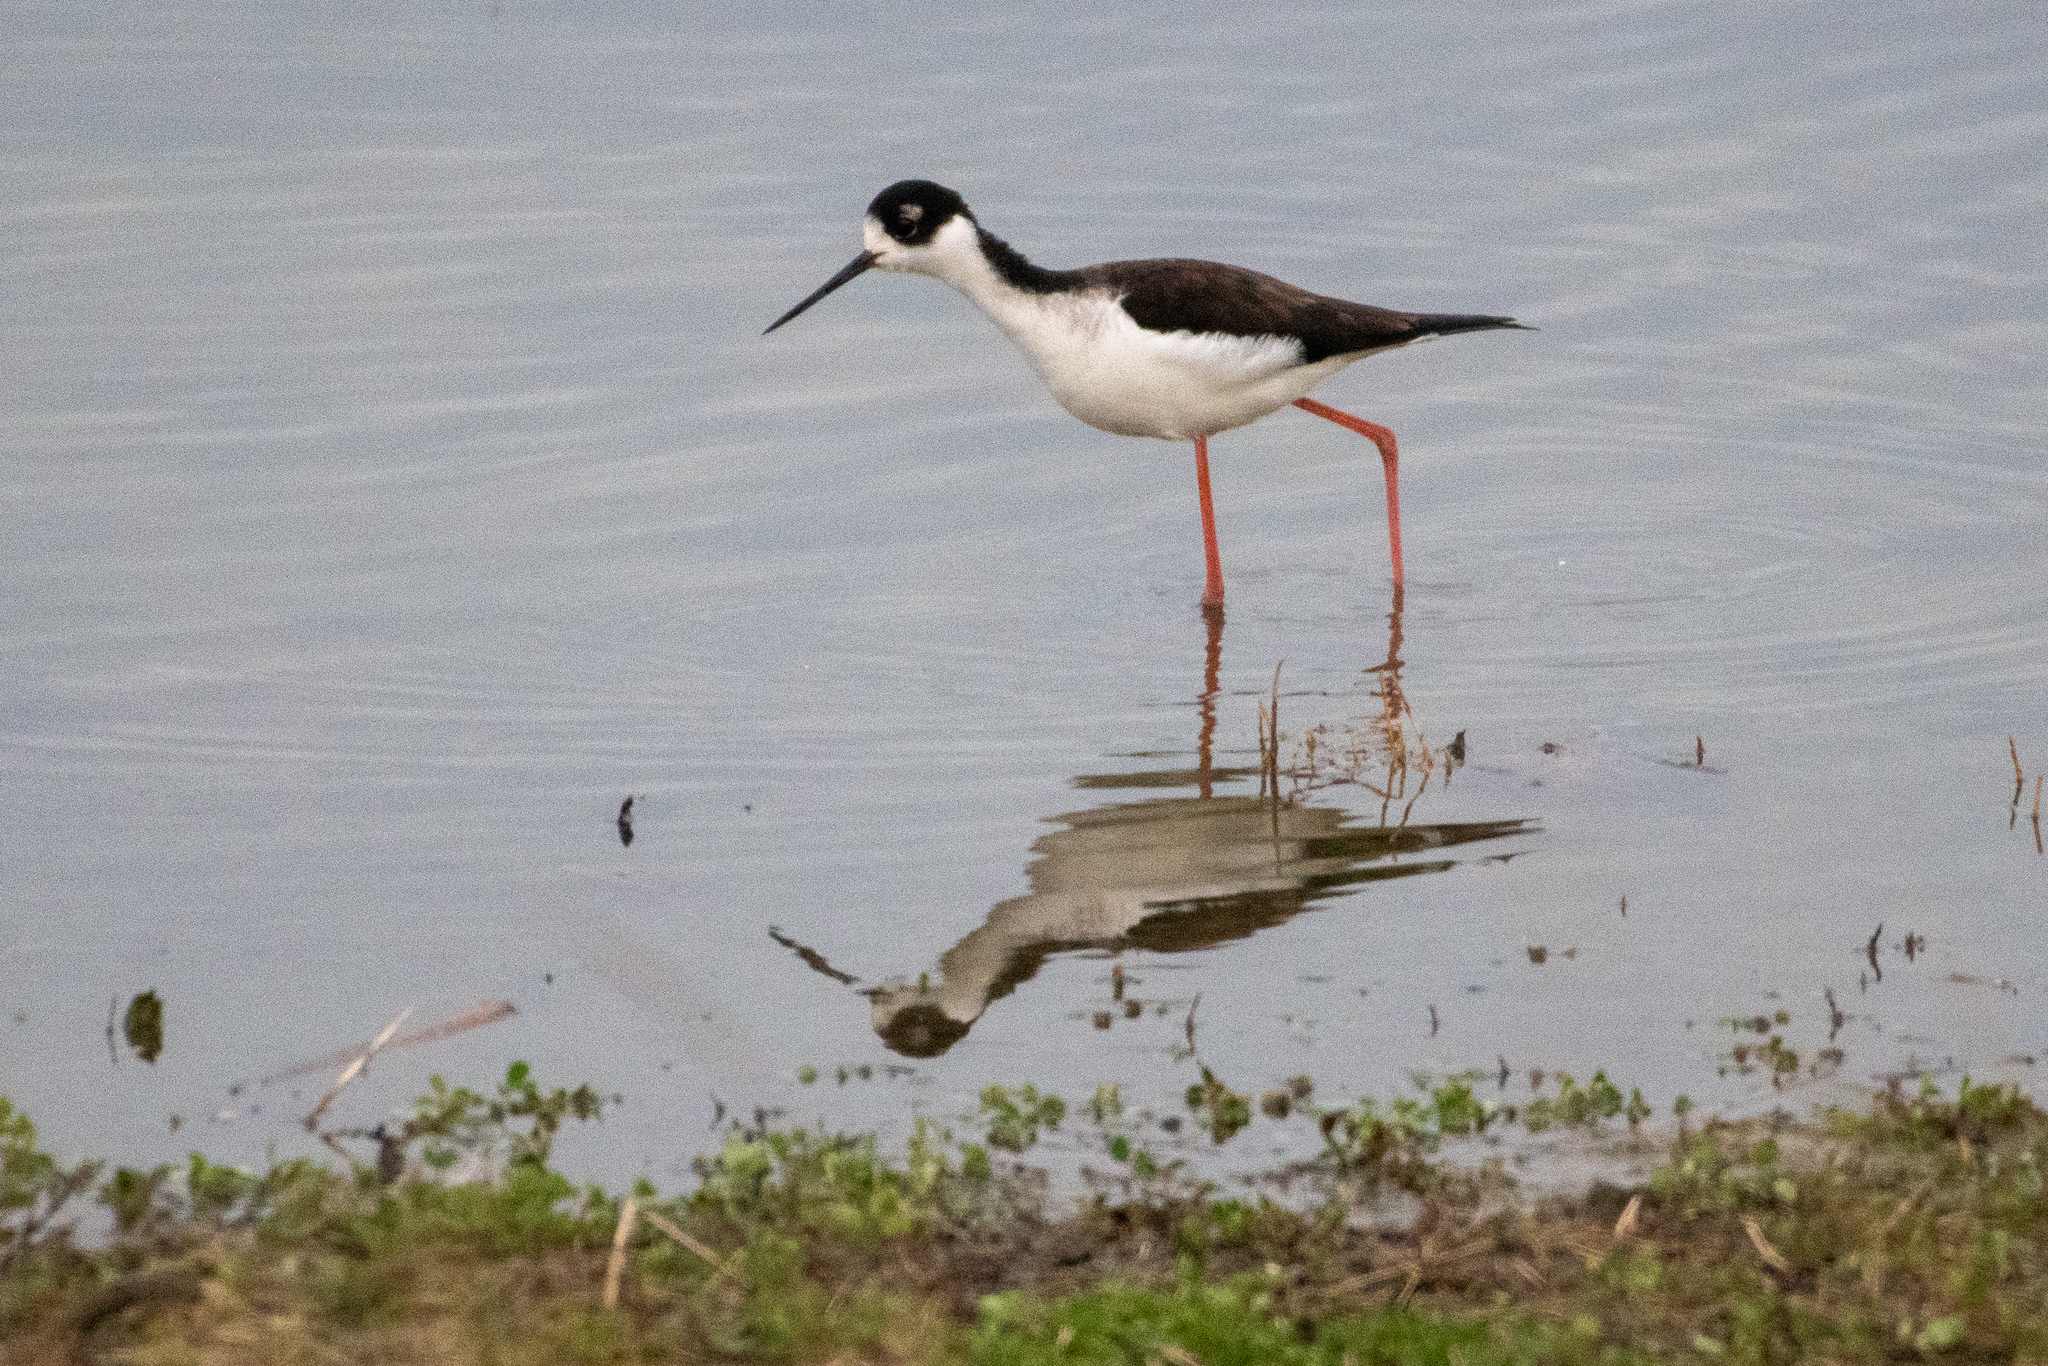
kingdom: Animalia
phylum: Chordata
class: Aves
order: Charadriiformes
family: Recurvirostridae
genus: Himantopus
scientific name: Himantopus mexicanus
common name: Black-necked stilt
